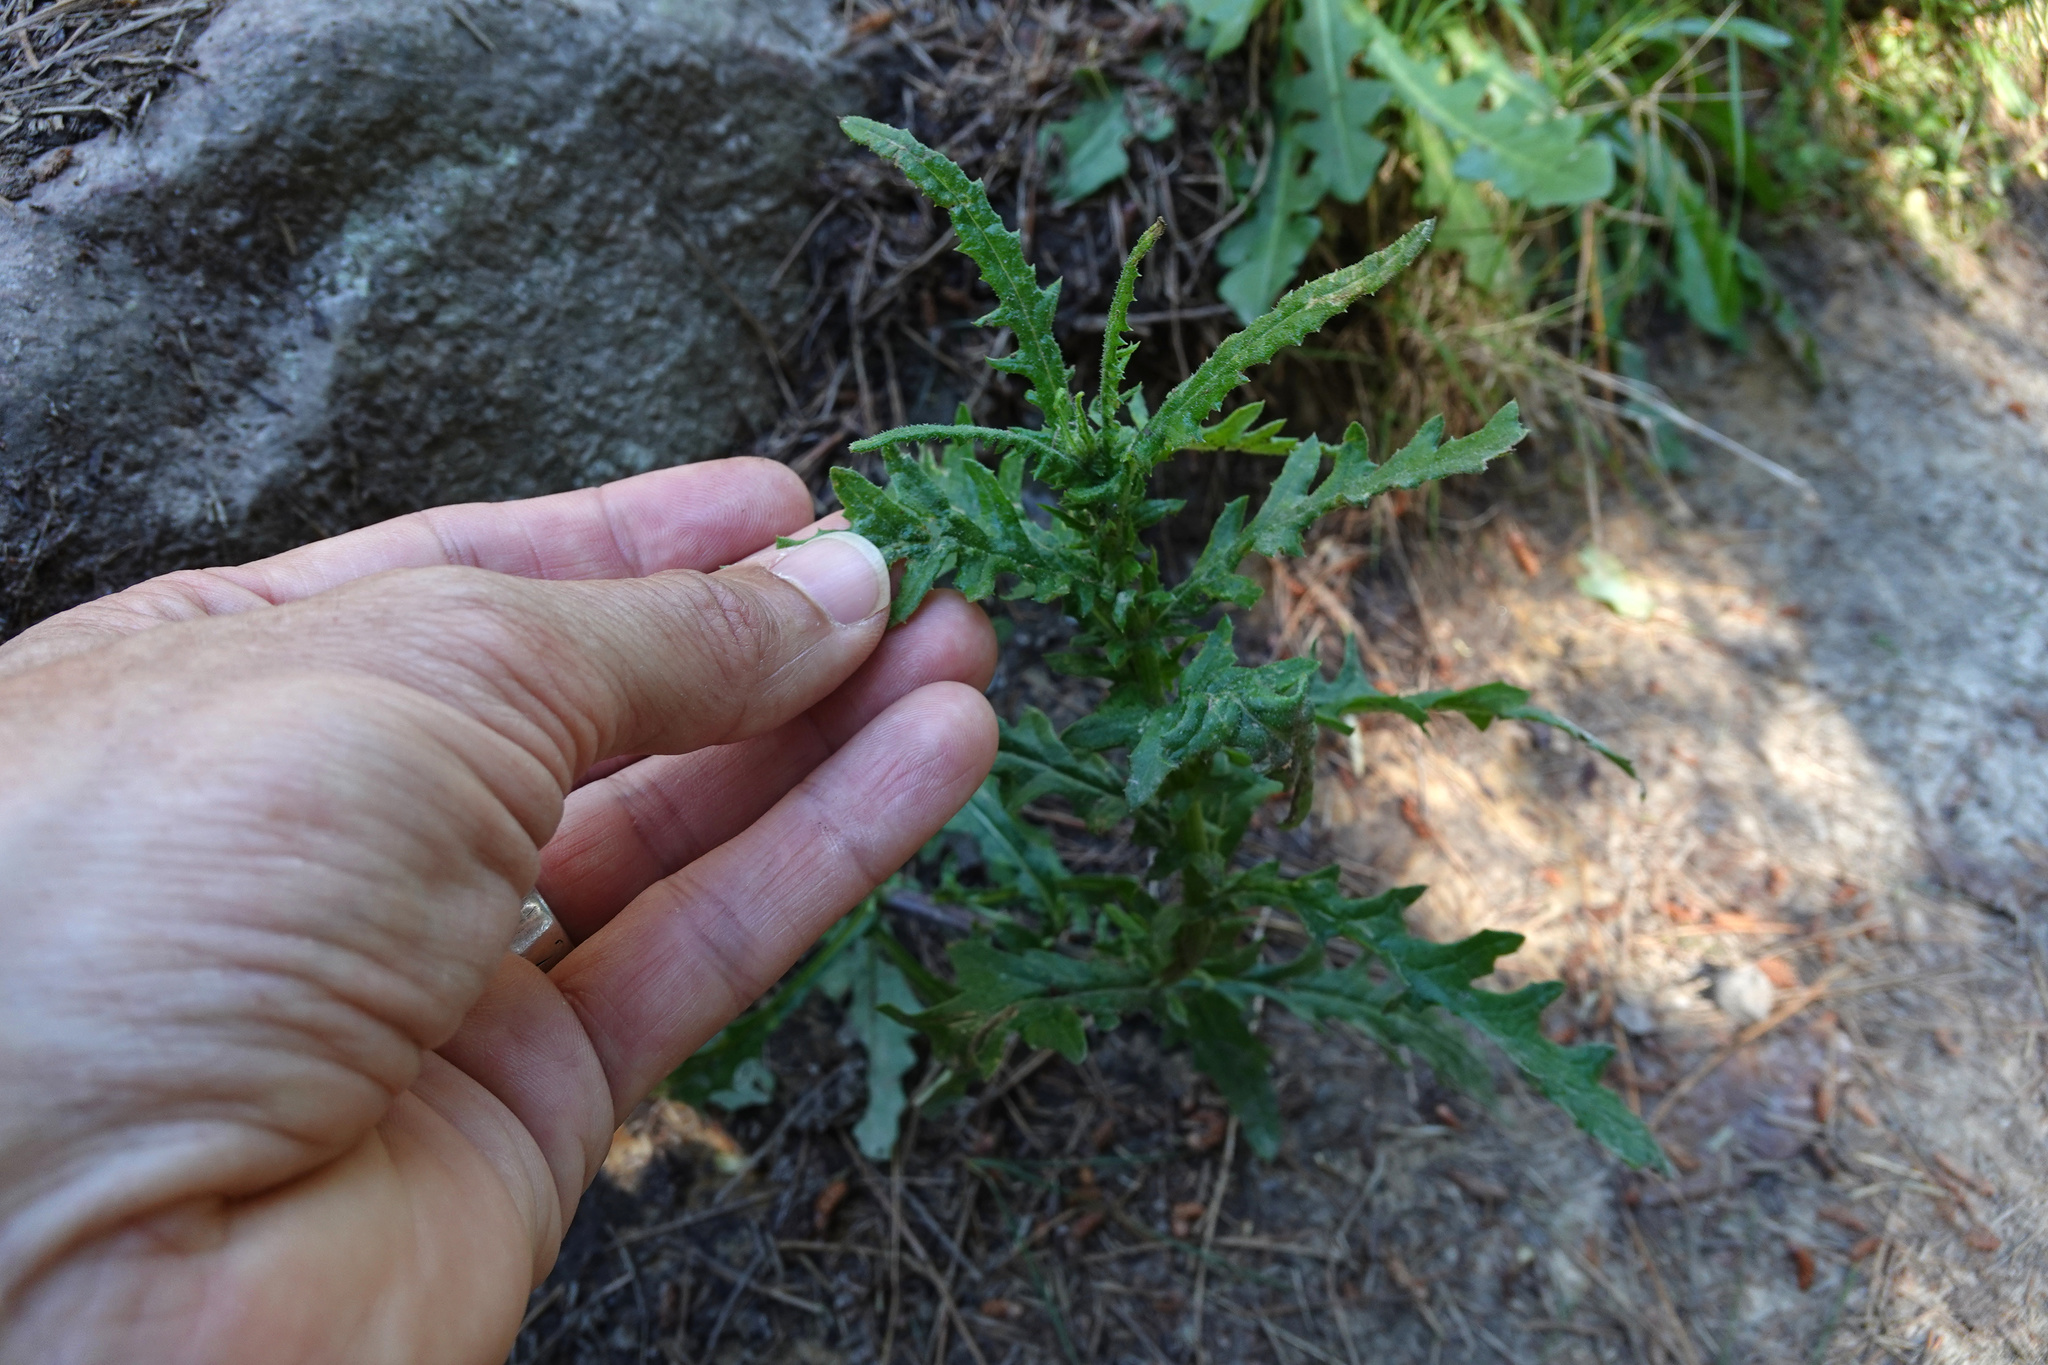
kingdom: Plantae
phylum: Tracheophyta
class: Magnoliopsida
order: Asterales
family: Asteraceae
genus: Senecio
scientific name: Senecio hispidulus
